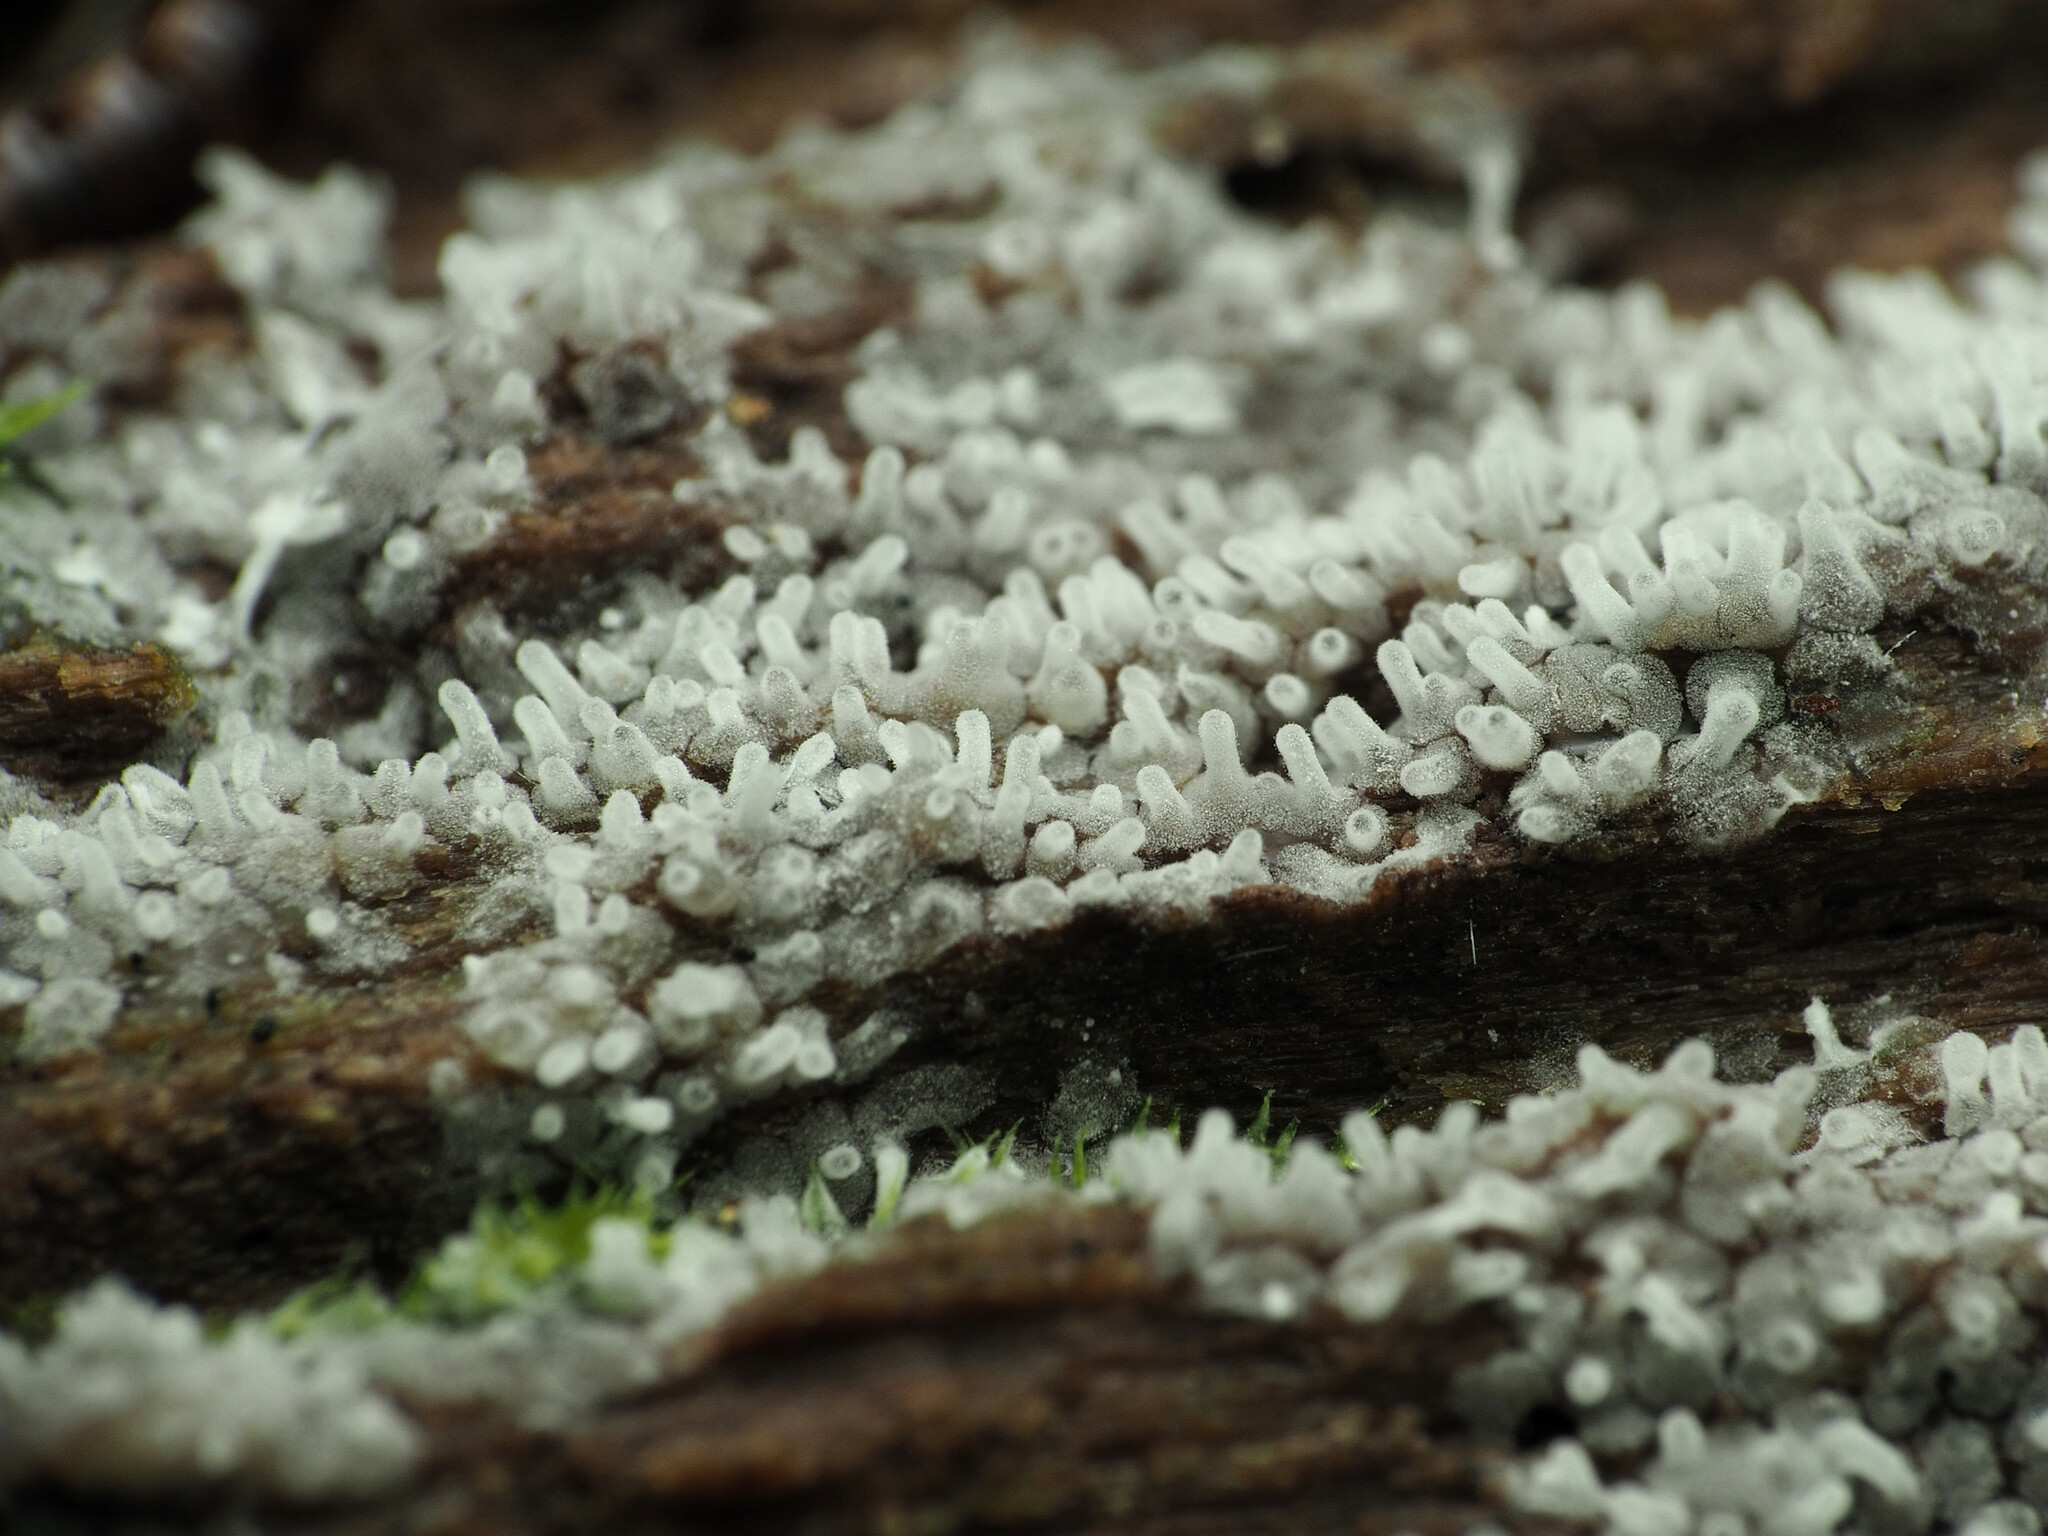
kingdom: Protozoa
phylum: Mycetozoa
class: Protosteliomycetes
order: Ceratiomyxales
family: Ceratiomyxaceae
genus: Ceratiomyxa
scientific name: Ceratiomyxa fruticulosa
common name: Honeycomb coral slime mold
